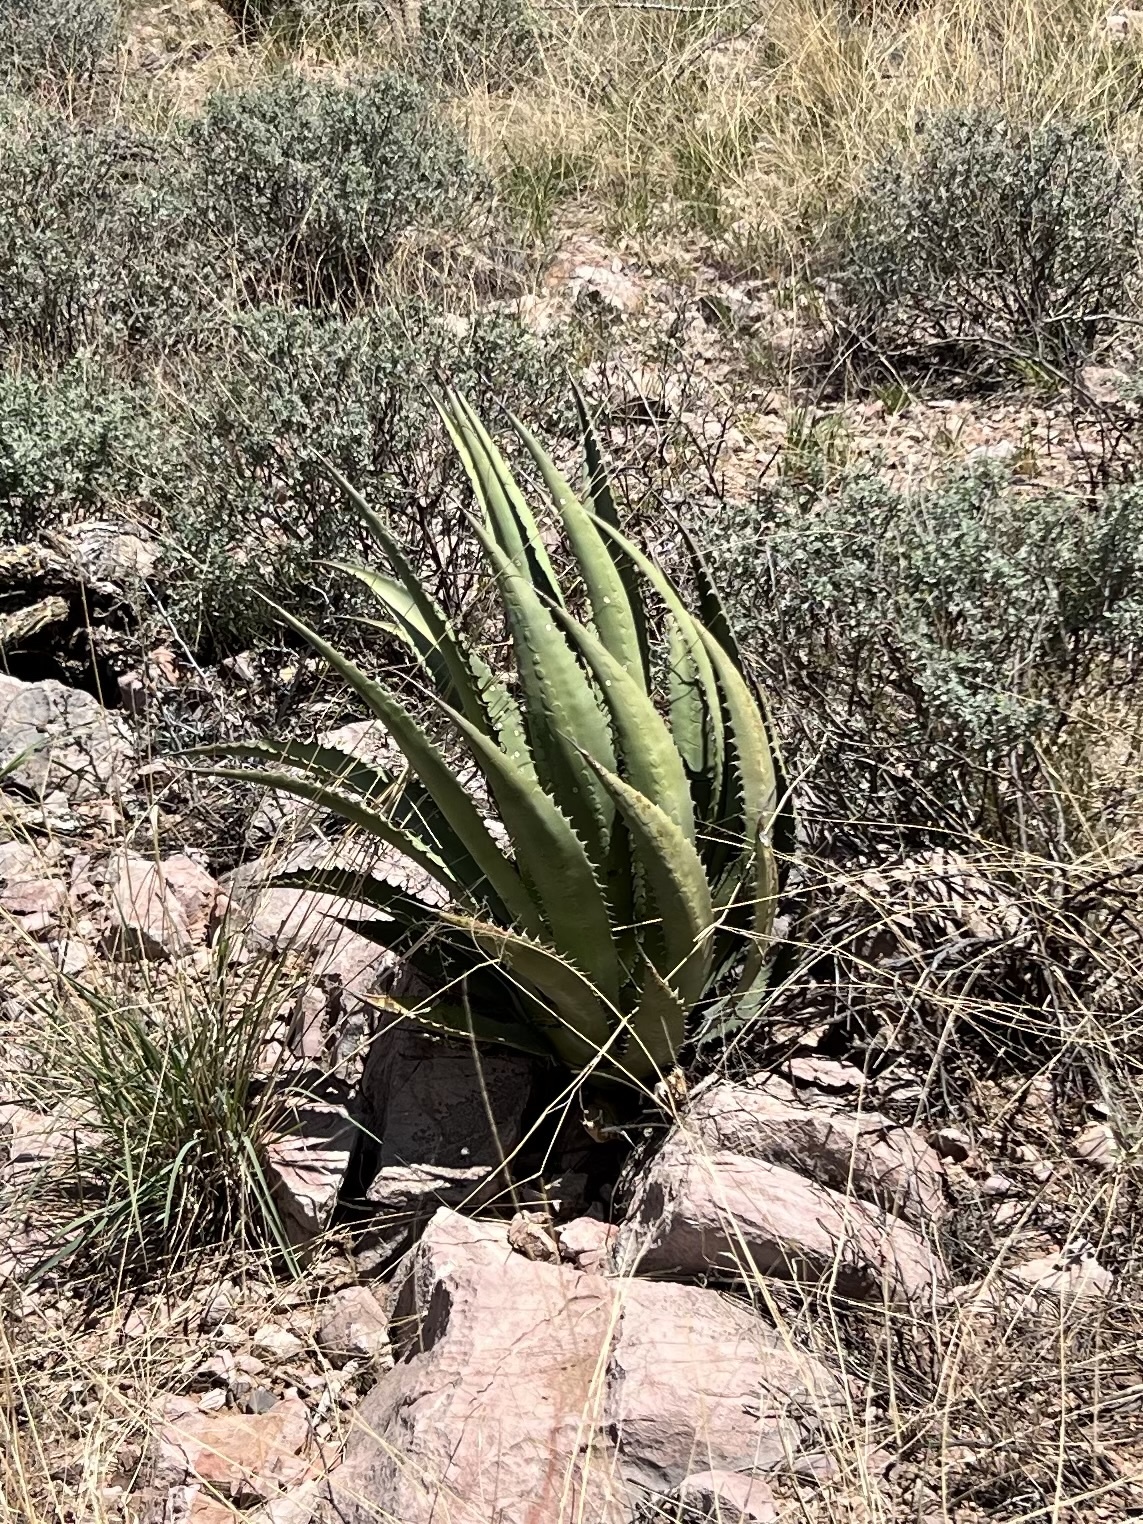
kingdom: Plantae
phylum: Tracheophyta
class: Liliopsida
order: Asparagales
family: Asparagaceae
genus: Agave
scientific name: Agave palmeri
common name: Palmer agave
